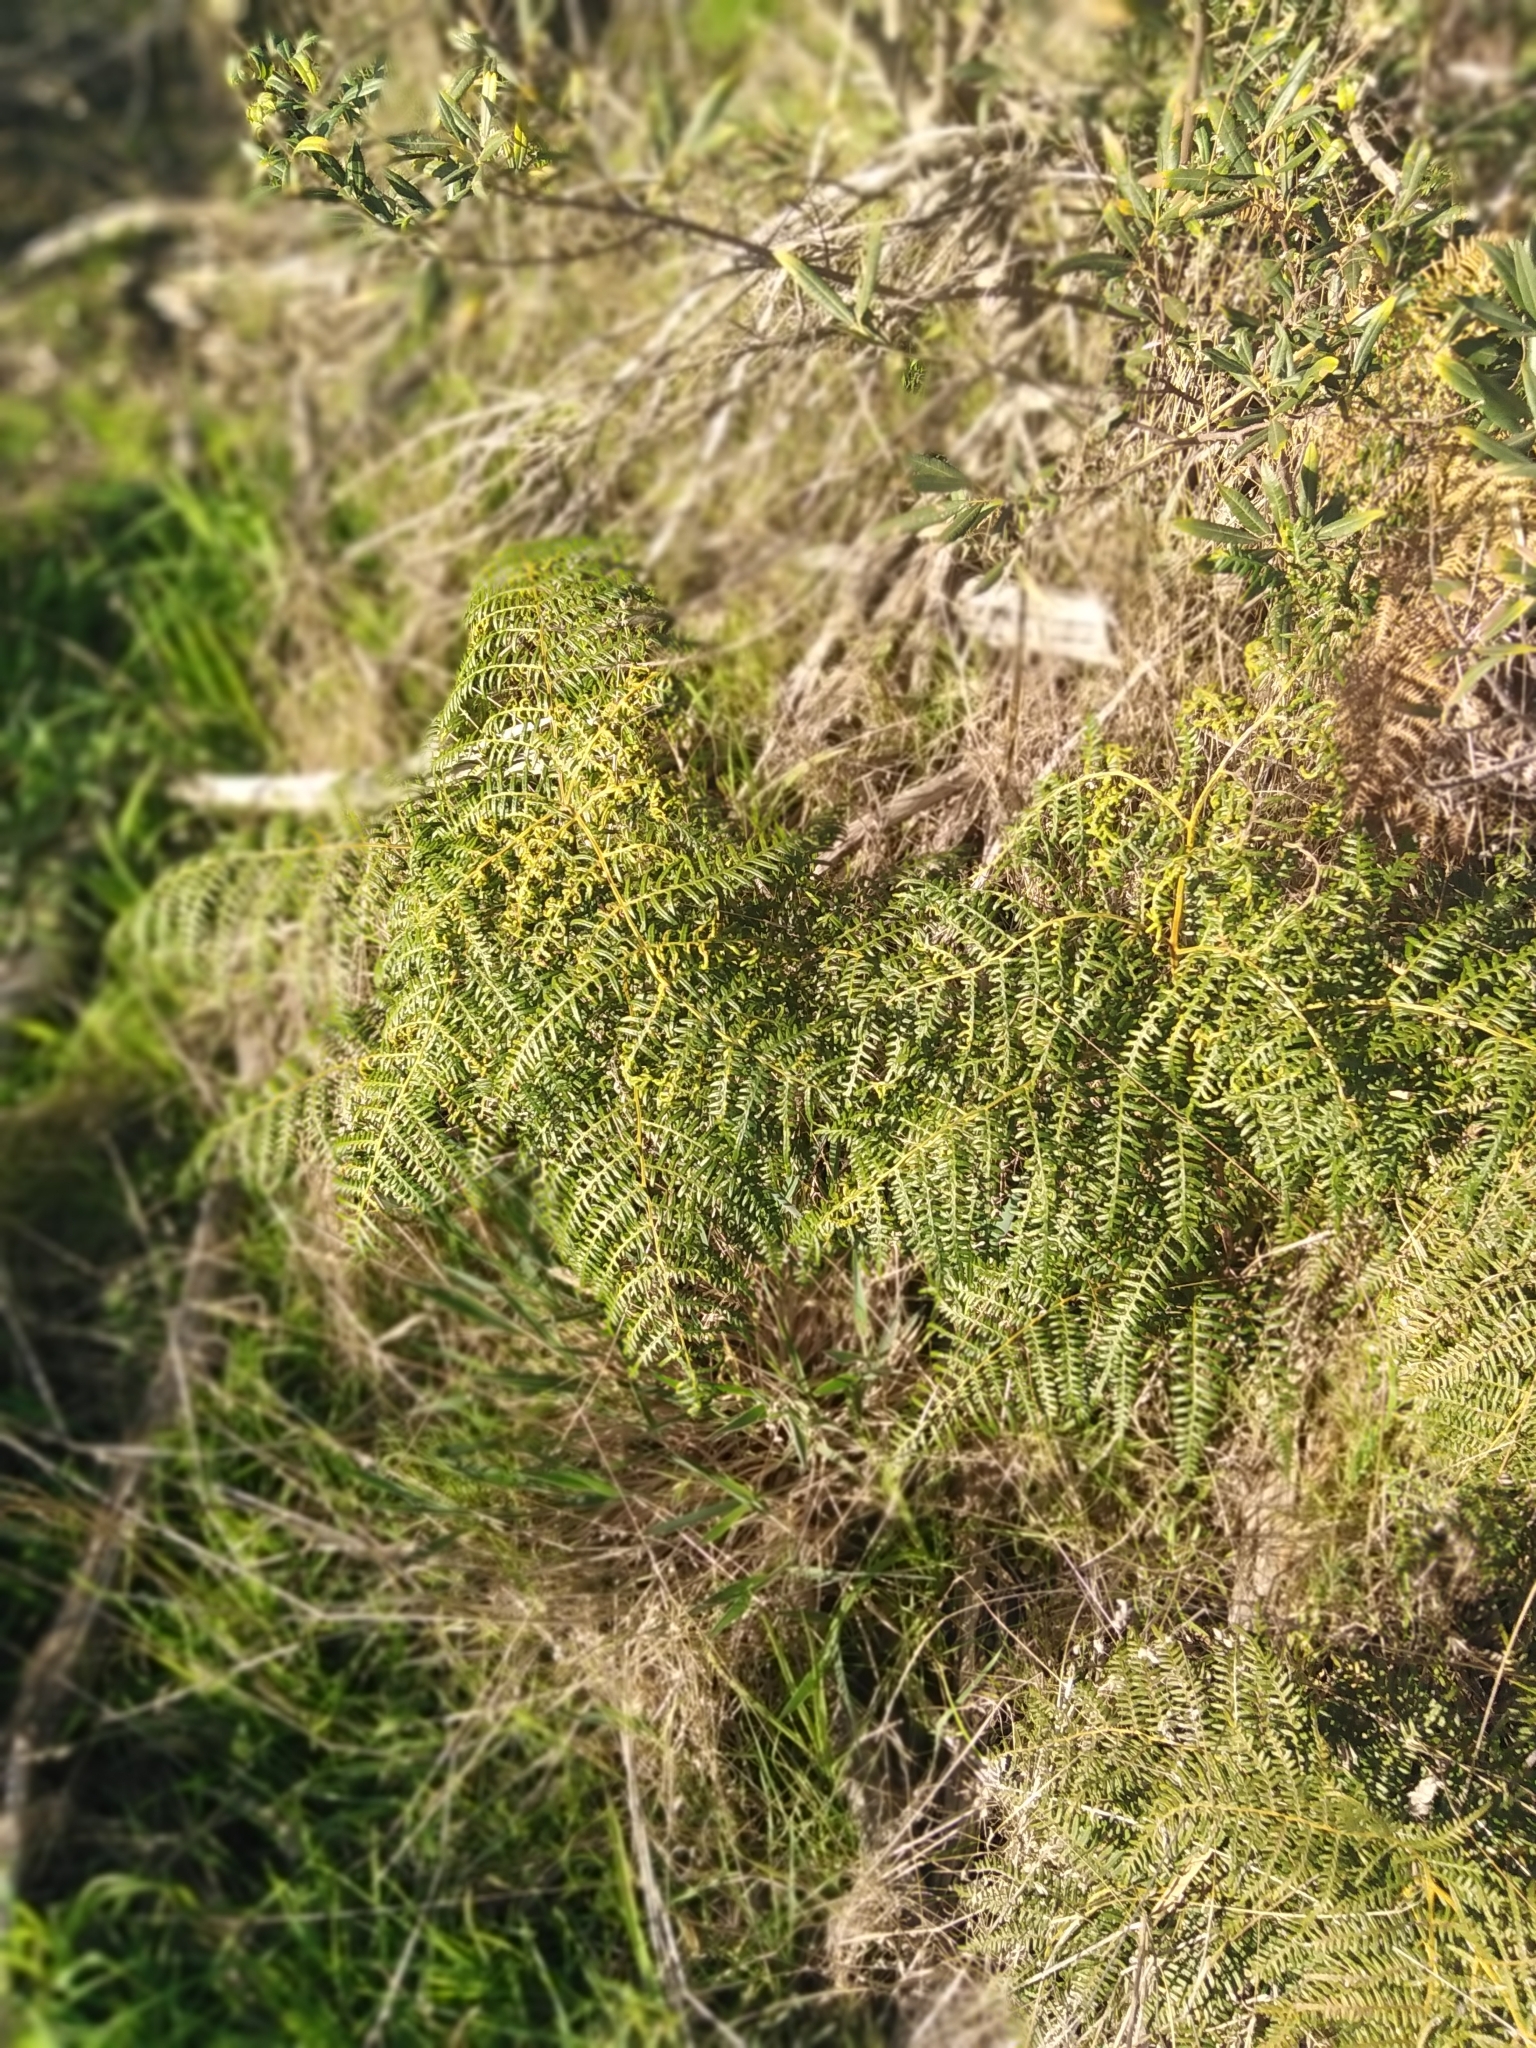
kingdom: Plantae
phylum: Tracheophyta
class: Polypodiopsida
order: Polypodiales
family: Dennstaedtiaceae
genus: Pteridium
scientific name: Pteridium aquilinum
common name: Bracken
